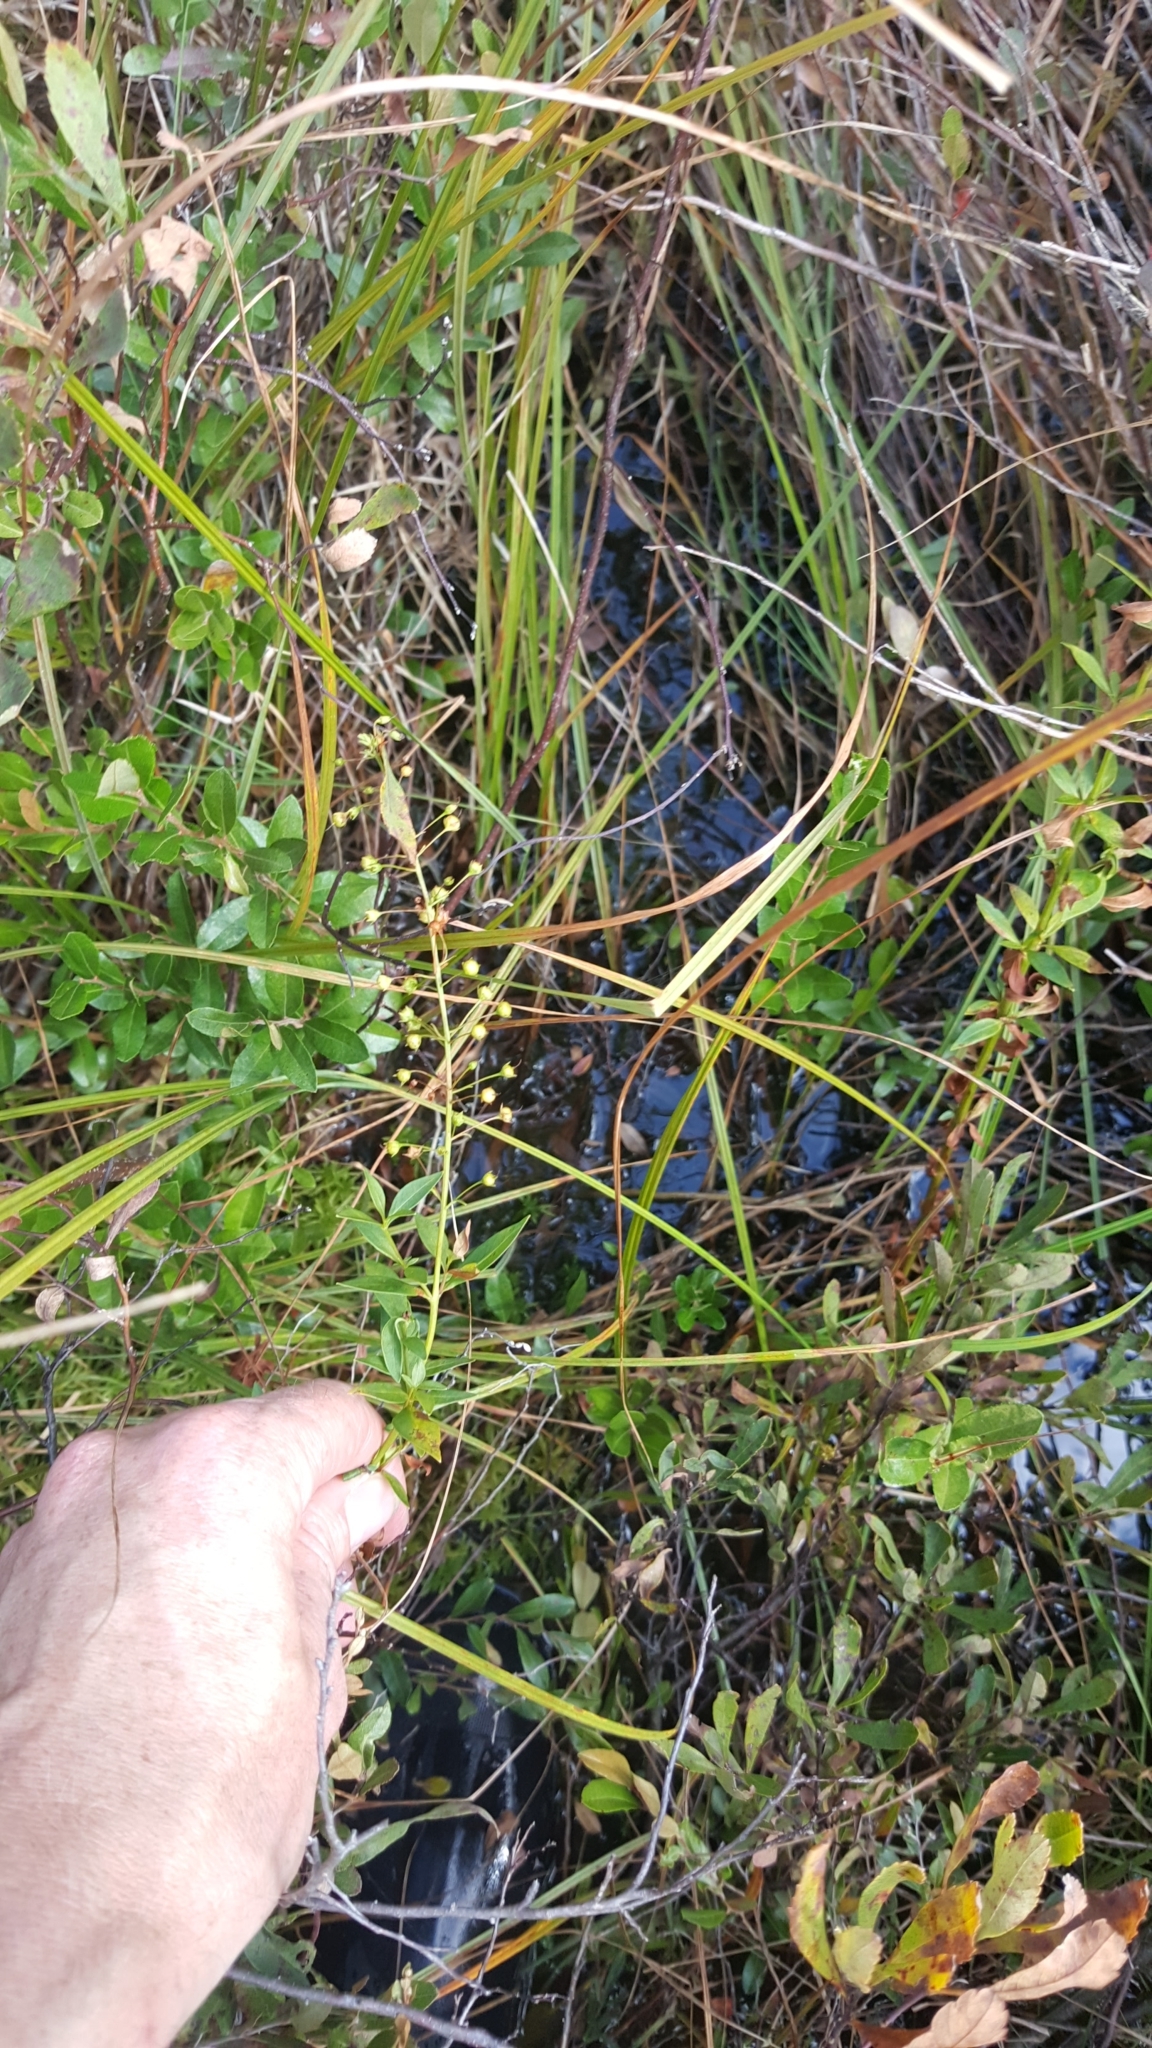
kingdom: Plantae
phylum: Tracheophyta
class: Magnoliopsida
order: Ericales
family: Primulaceae
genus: Lysimachia
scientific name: Lysimachia terrestris
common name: Lake loosestrife
